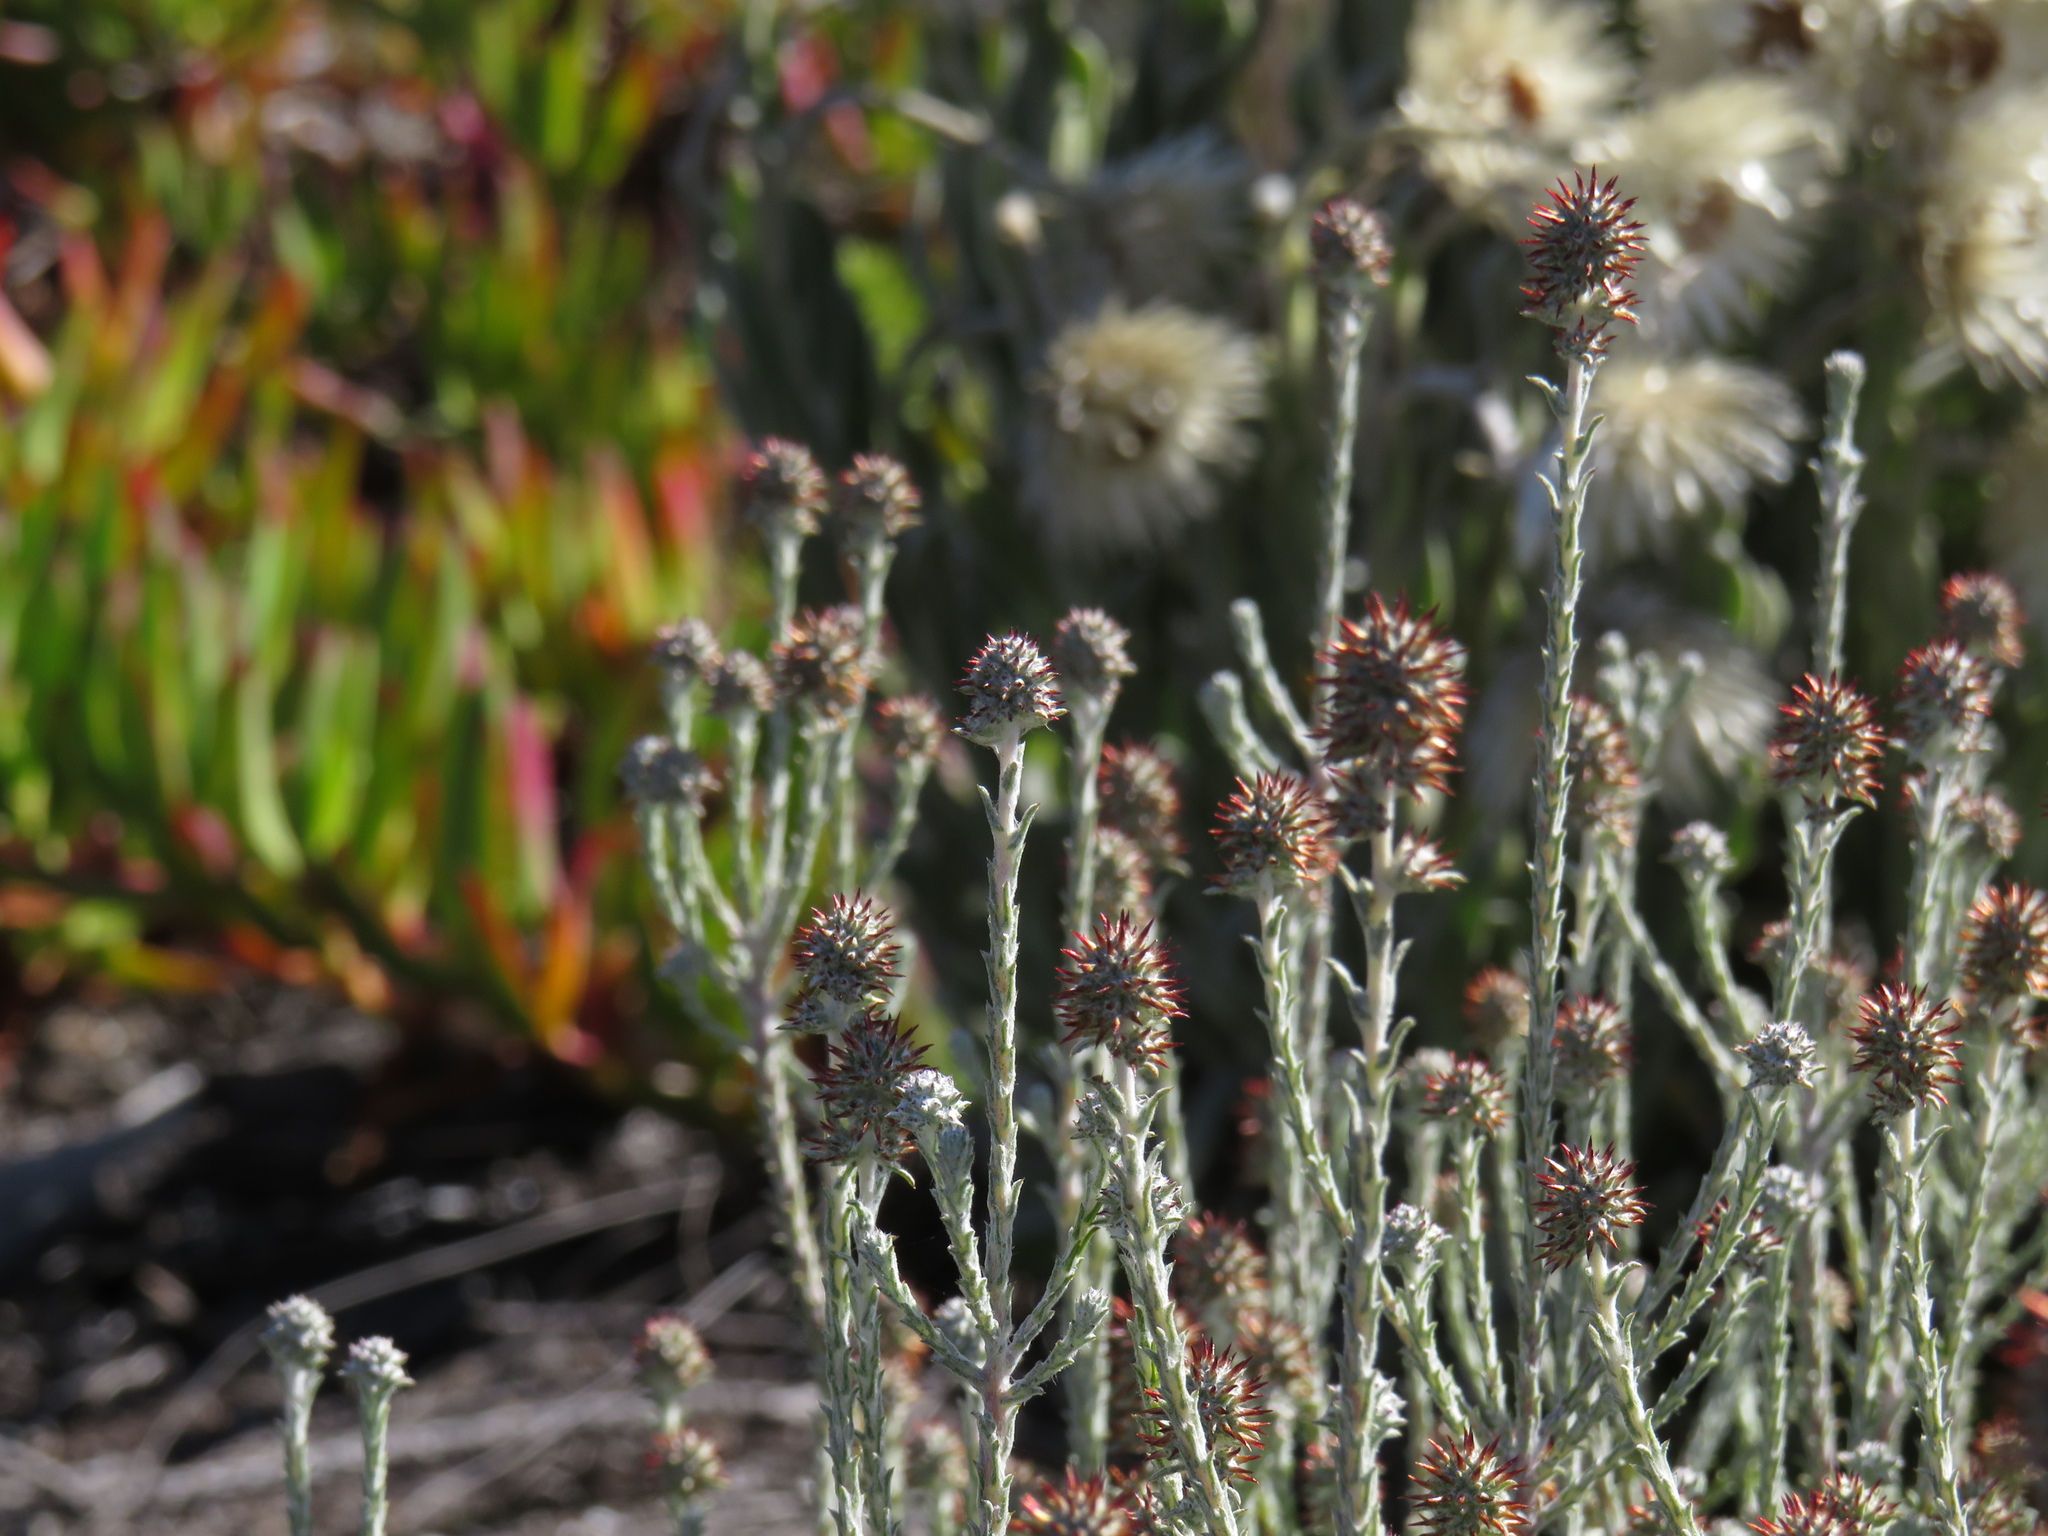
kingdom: Plantae
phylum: Tracheophyta
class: Magnoliopsida
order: Asterales
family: Asteraceae
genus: Seriphium
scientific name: Seriphium incanum
